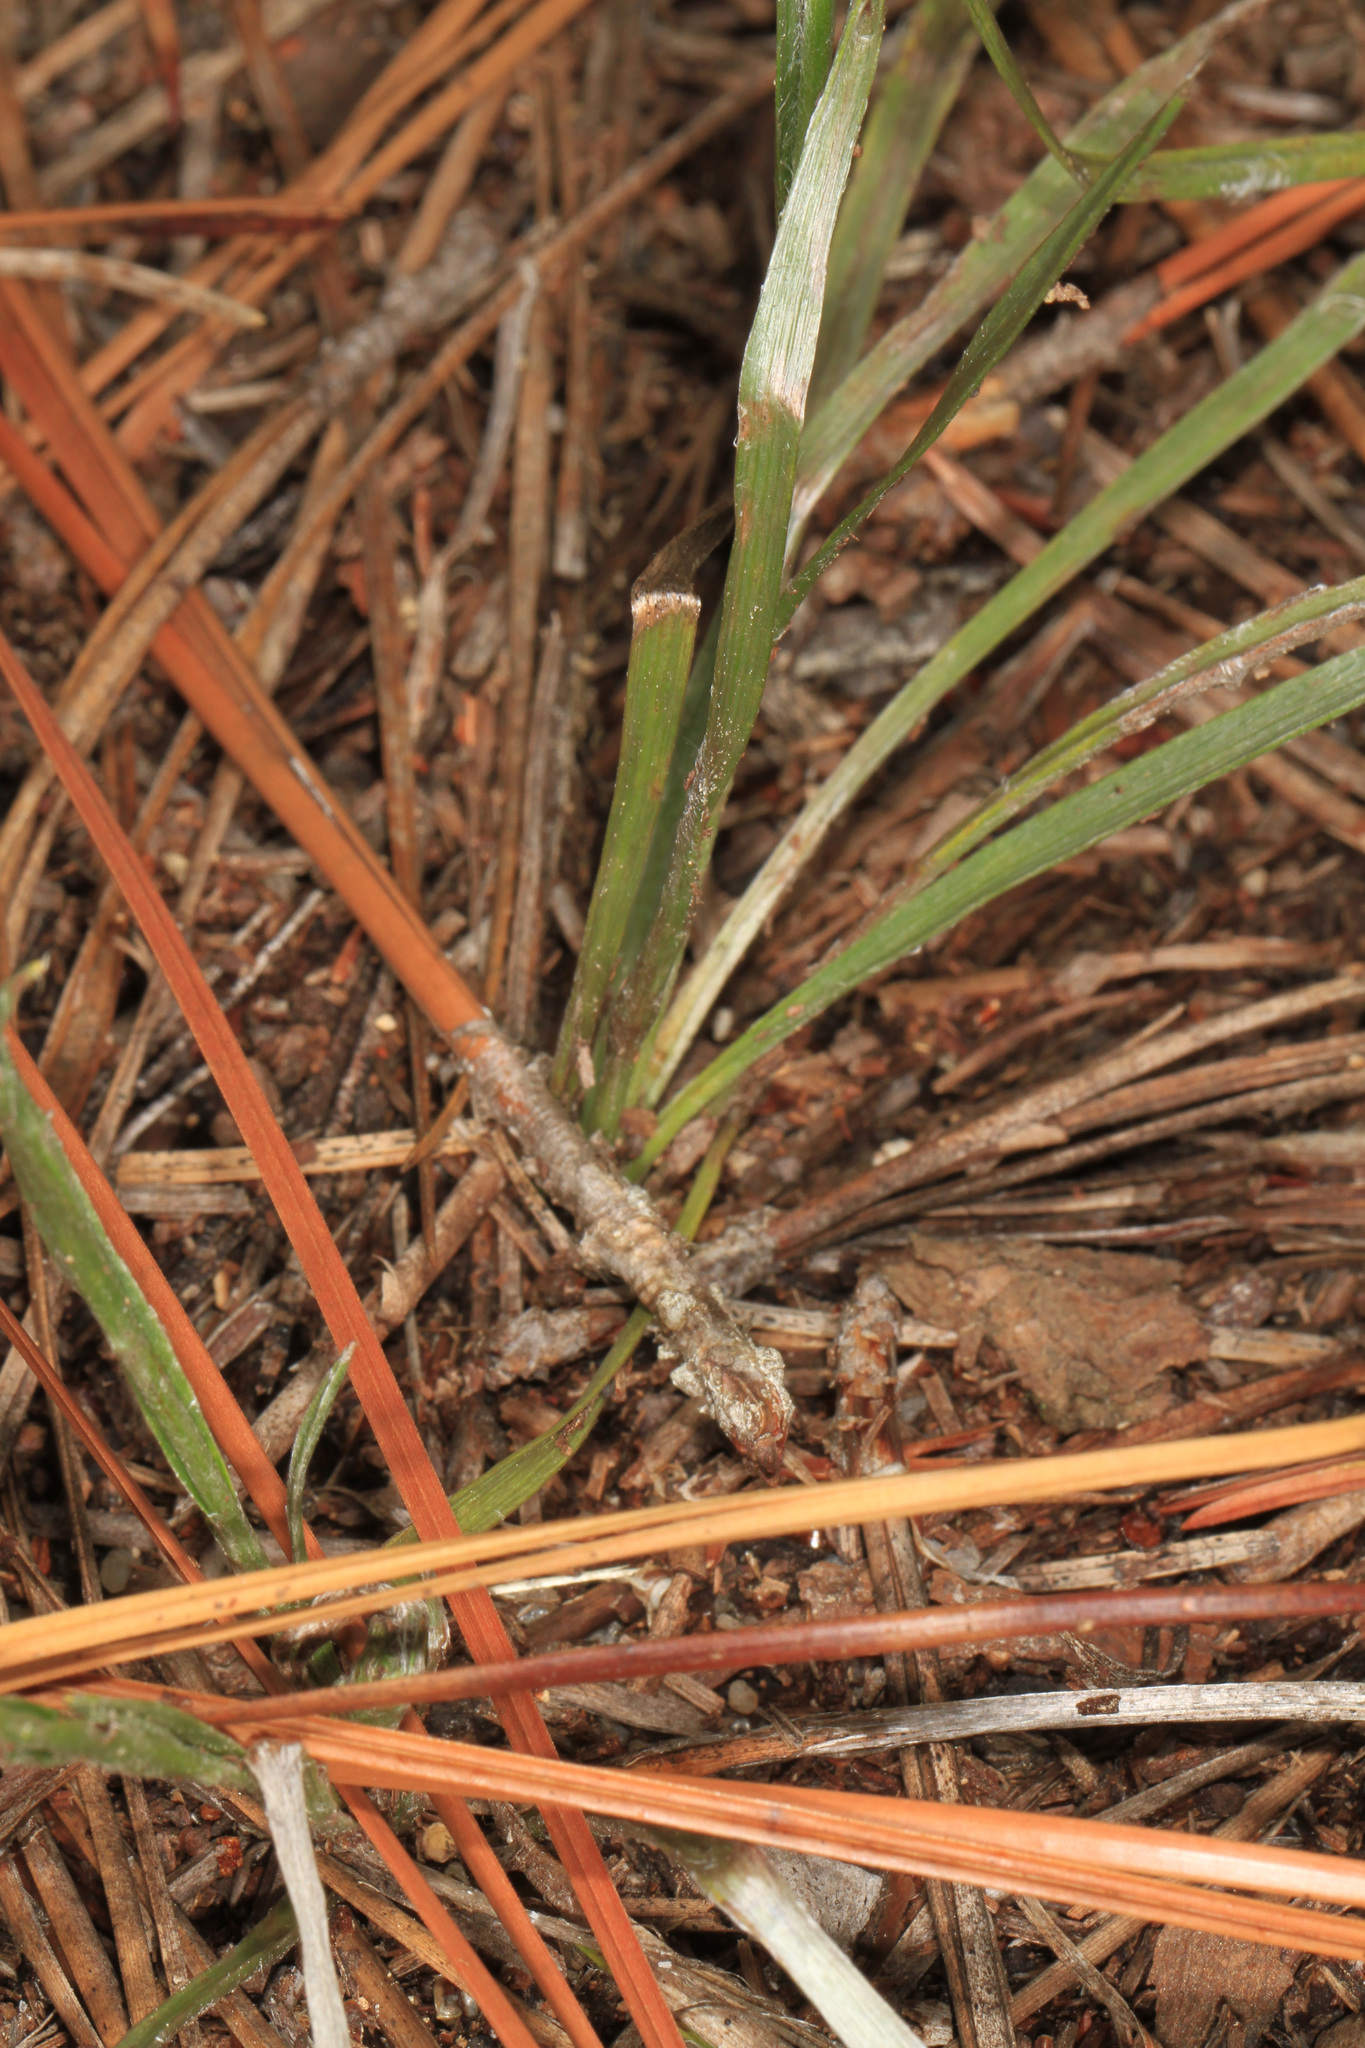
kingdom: Plantae
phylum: Tracheophyta
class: Magnoliopsida
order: Asterales
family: Asteraceae
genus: Pityopsis
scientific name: Pityopsis graminifolia
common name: Grass-leaf golden-aster
